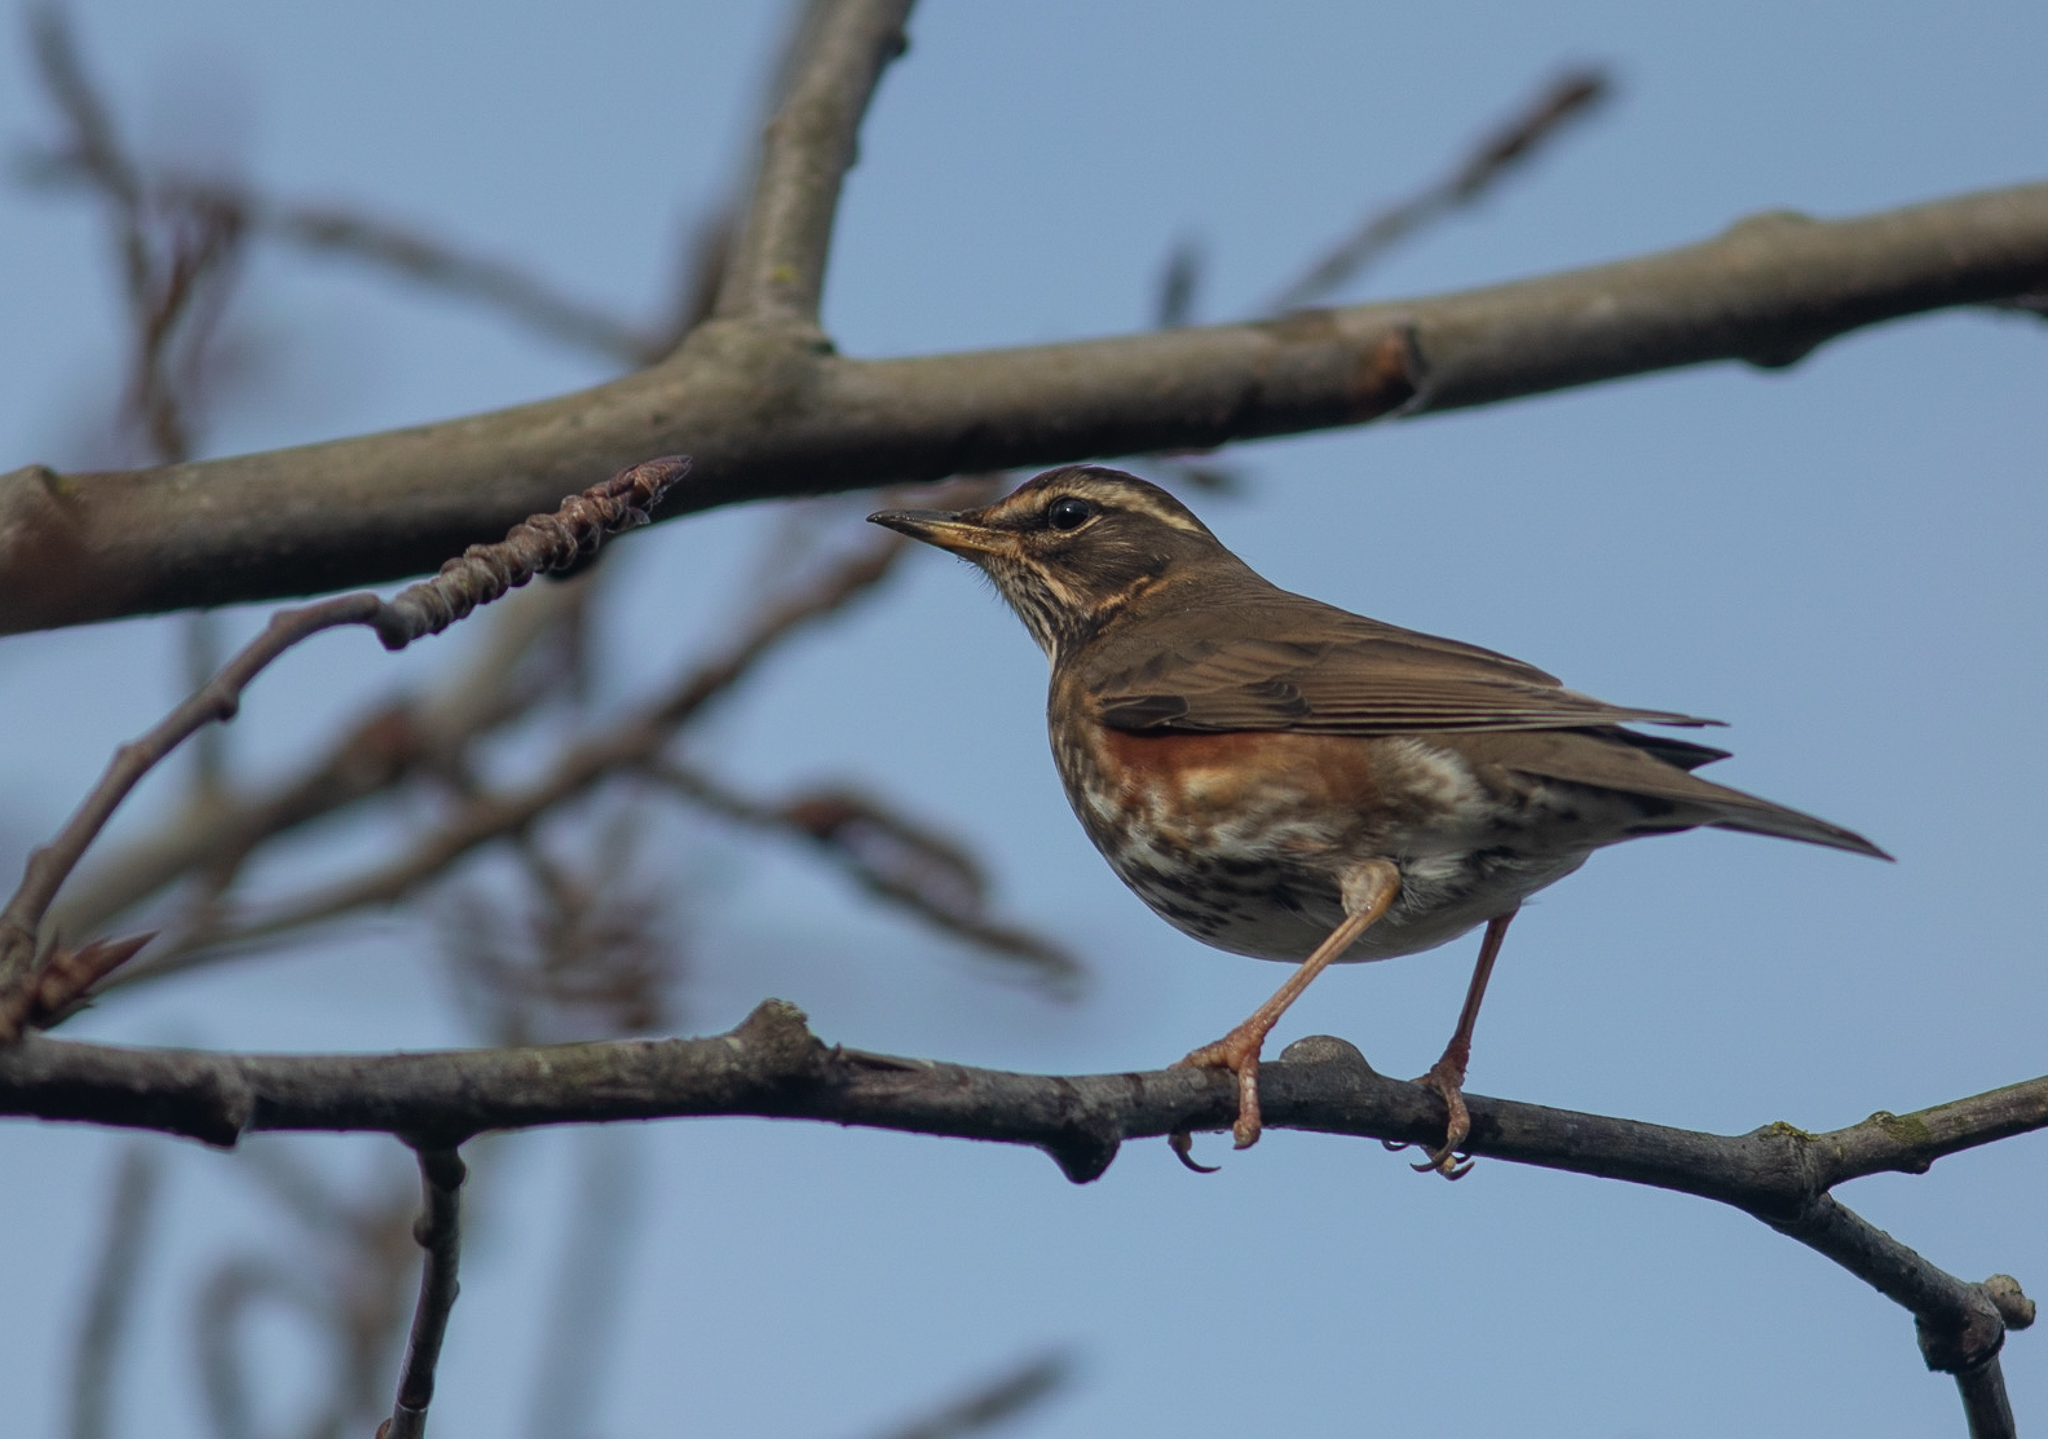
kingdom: Animalia
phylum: Chordata
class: Aves
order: Passeriformes
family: Turdidae
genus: Turdus
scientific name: Turdus iliacus
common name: Redwing
